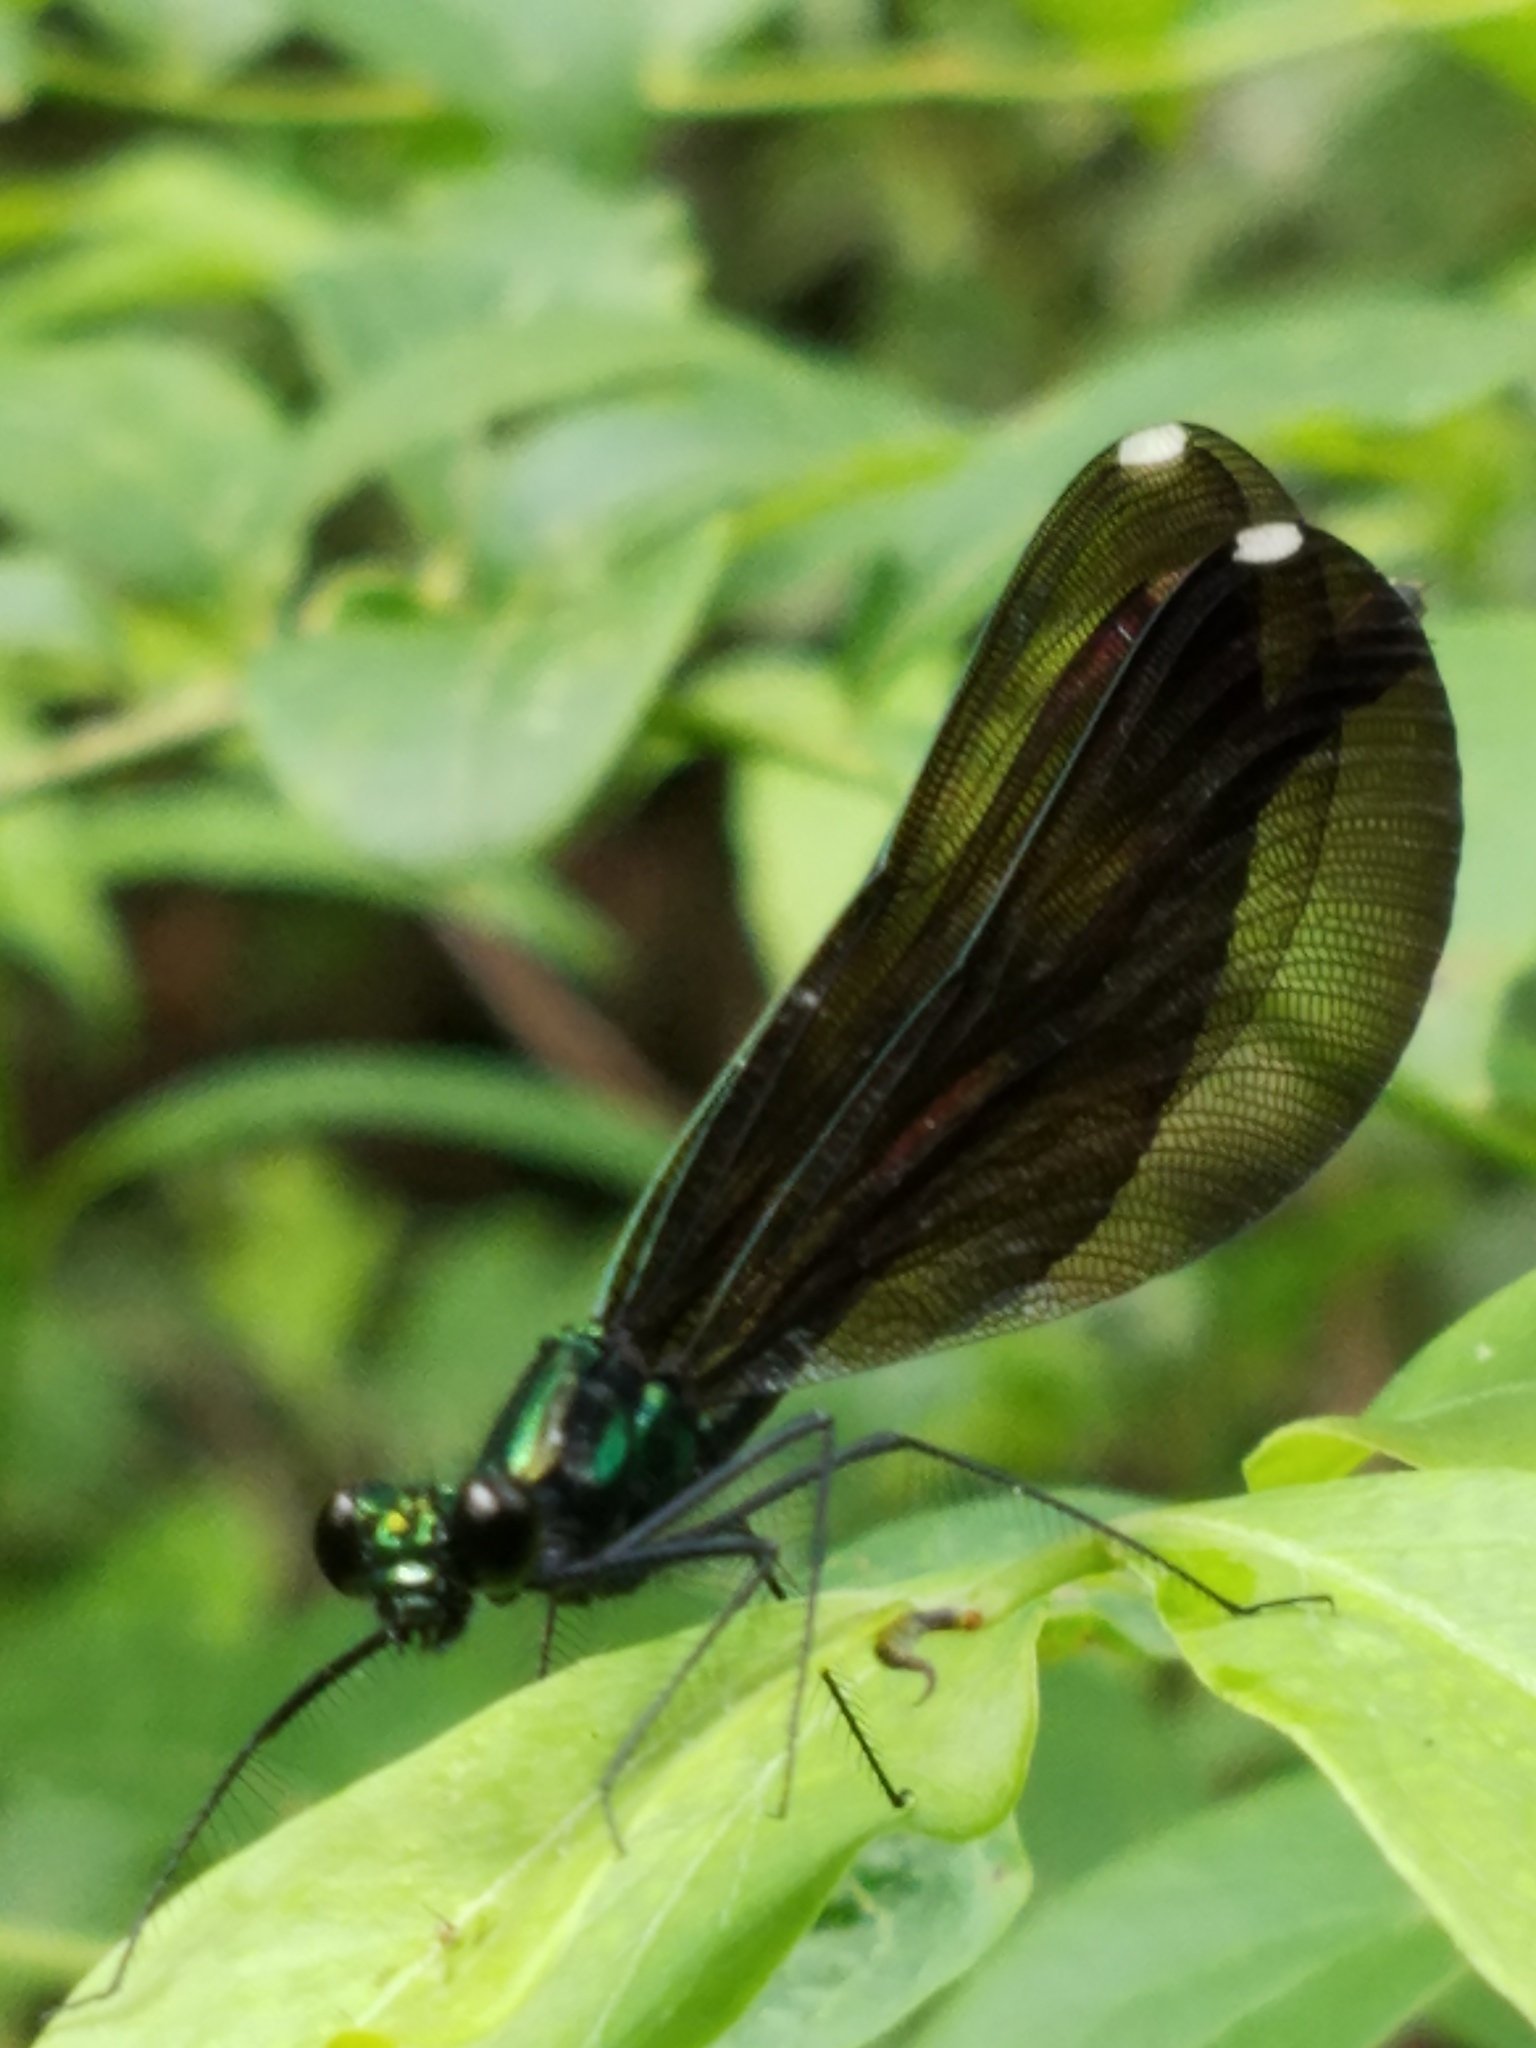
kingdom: Animalia
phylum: Arthropoda
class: Insecta
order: Odonata
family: Calopterygidae
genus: Calopteryx
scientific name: Calopteryx maculata
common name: Ebony jewelwing
